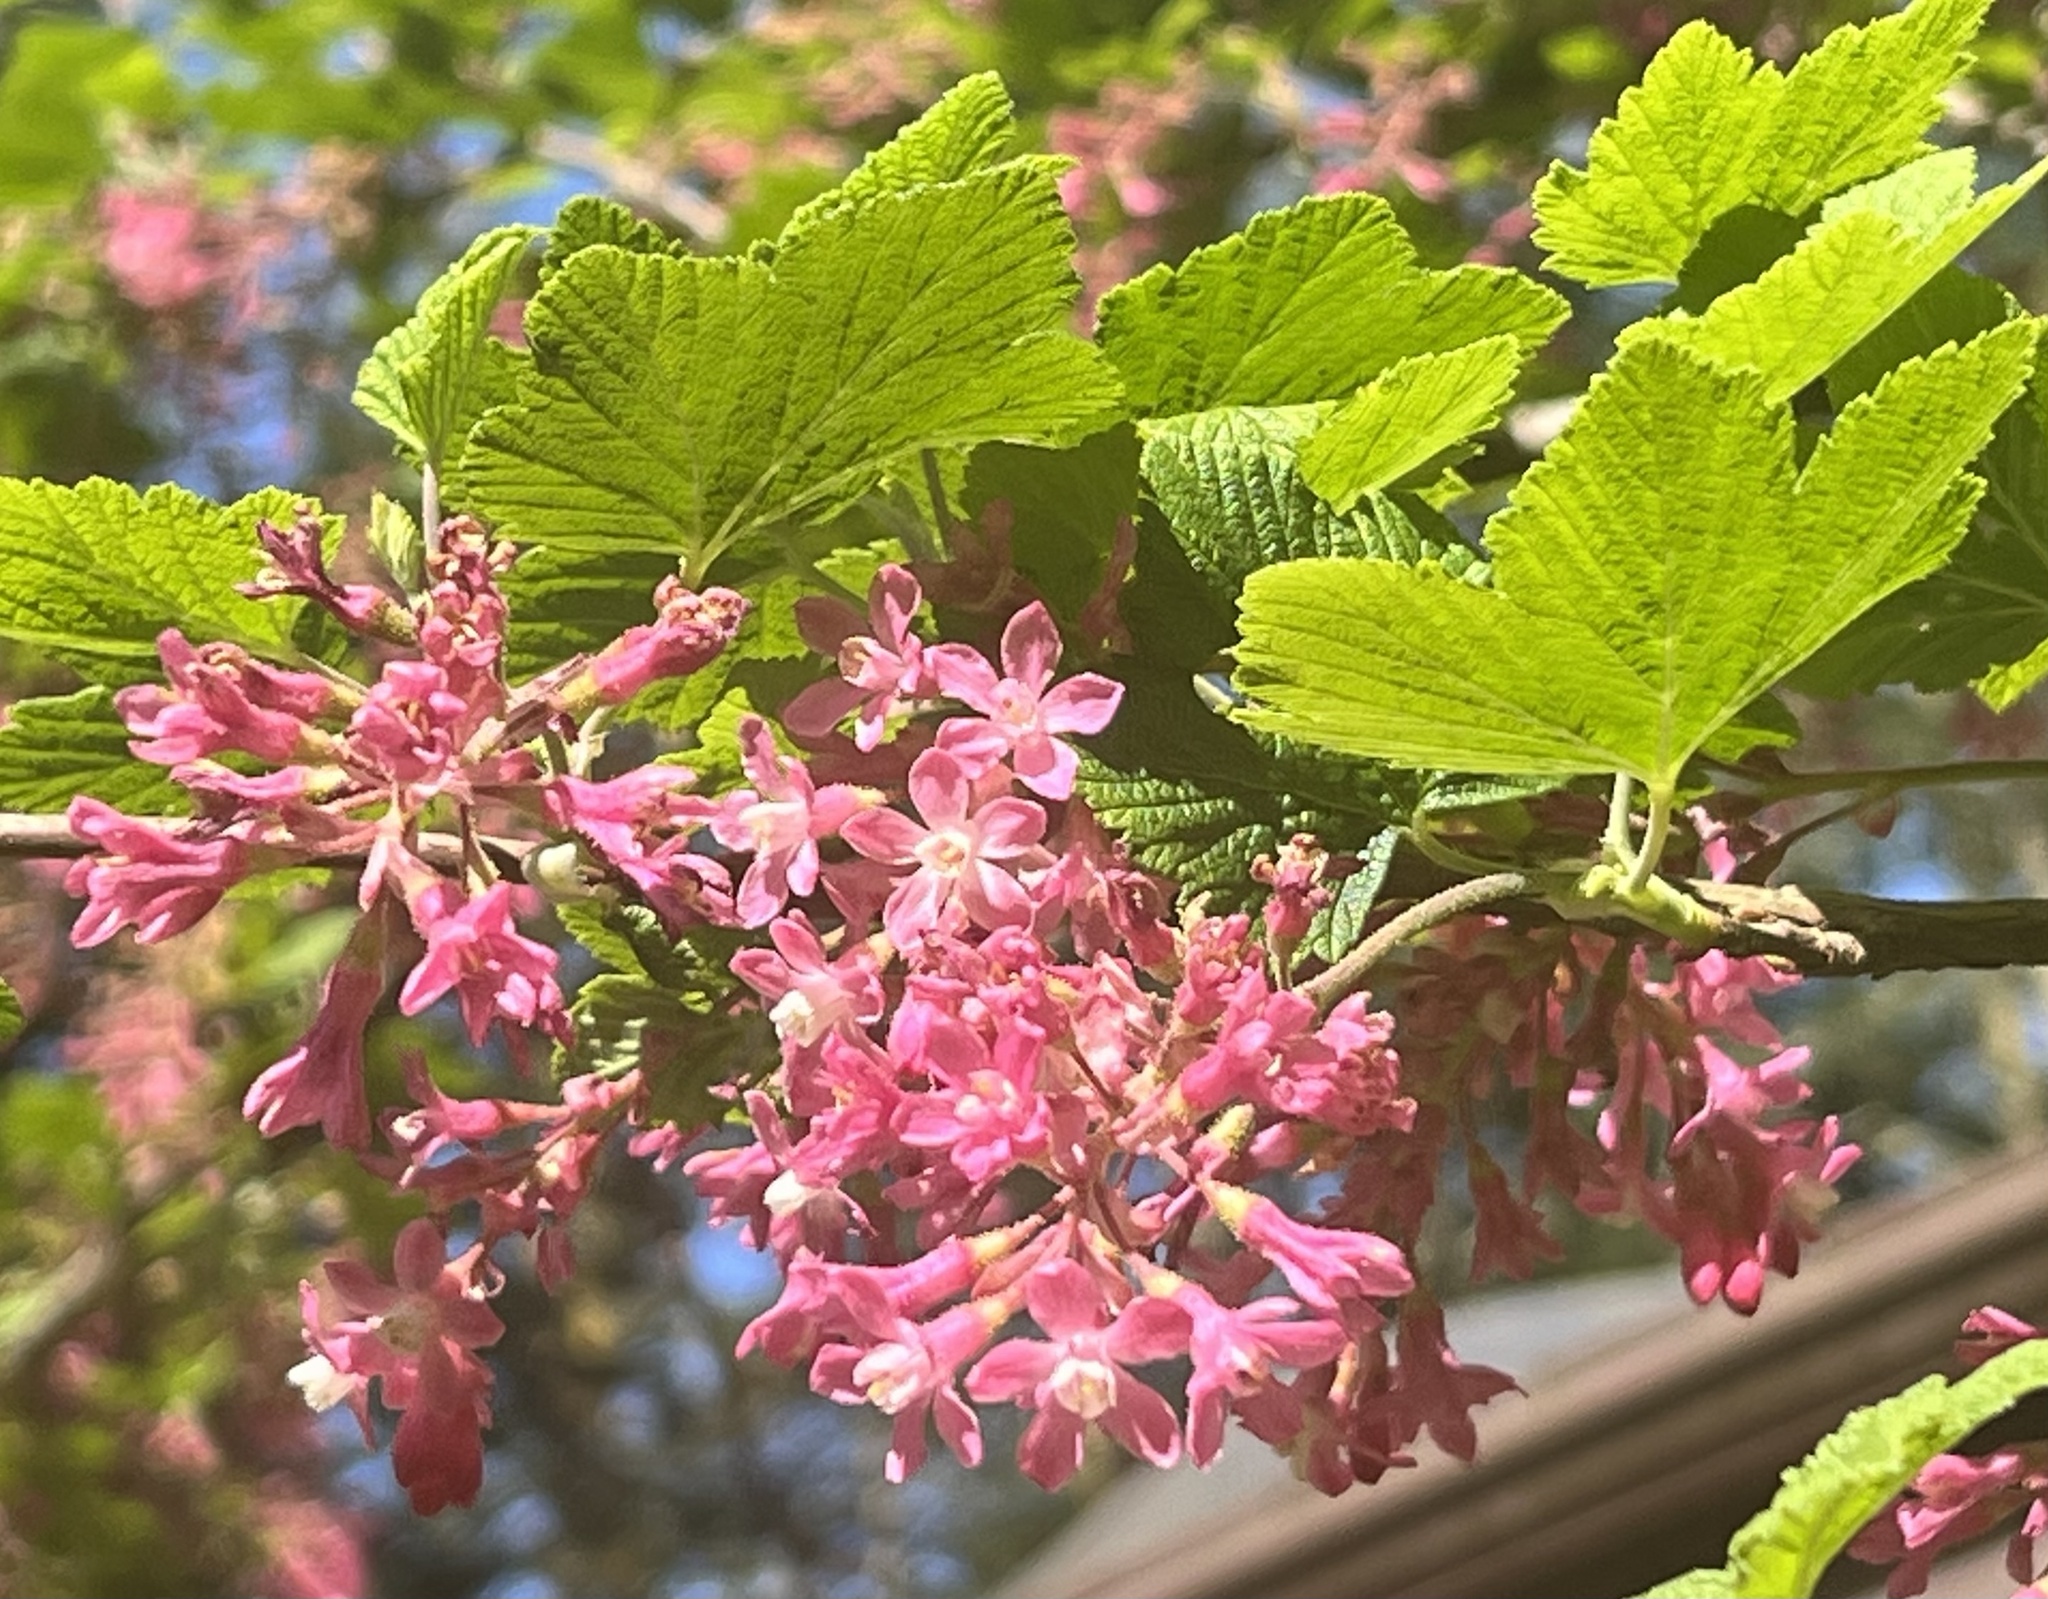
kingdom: Plantae
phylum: Tracheophyta
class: Magnoliopsida
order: Saxifragales
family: Grossulariaceae
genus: Ribes
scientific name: Ribes sanguineum
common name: Flowering currant
